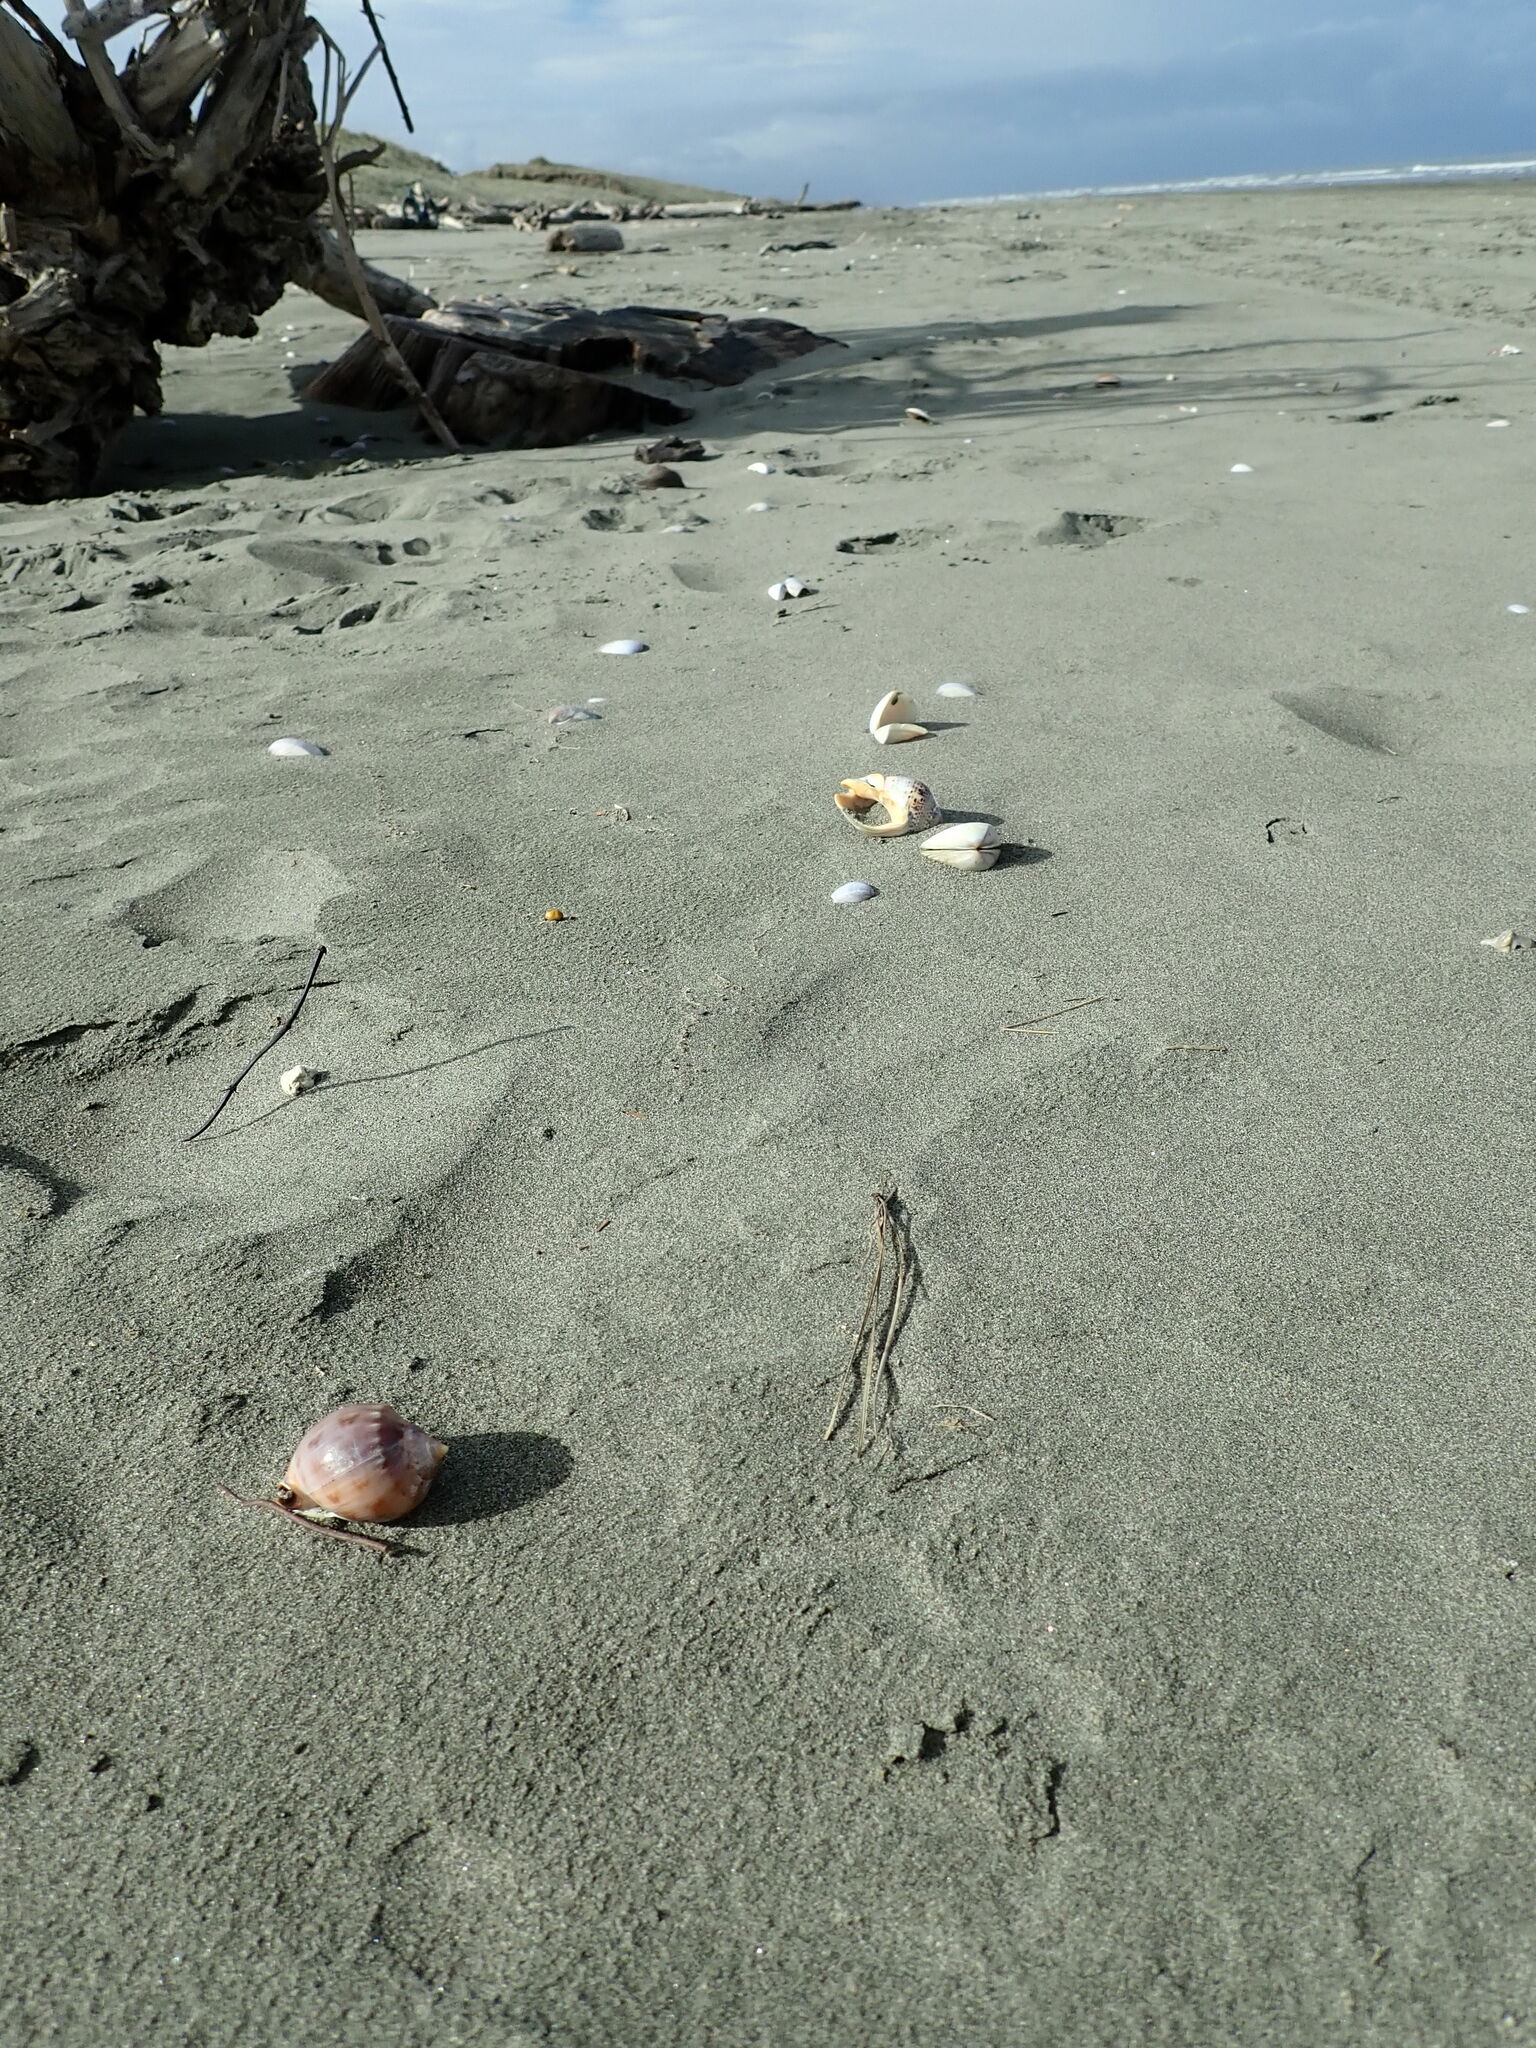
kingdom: Animalia
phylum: Mollusca
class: Gastropoda
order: Neogastropoda
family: Cominellidae
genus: Cominella
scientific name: Cominella adspersa
